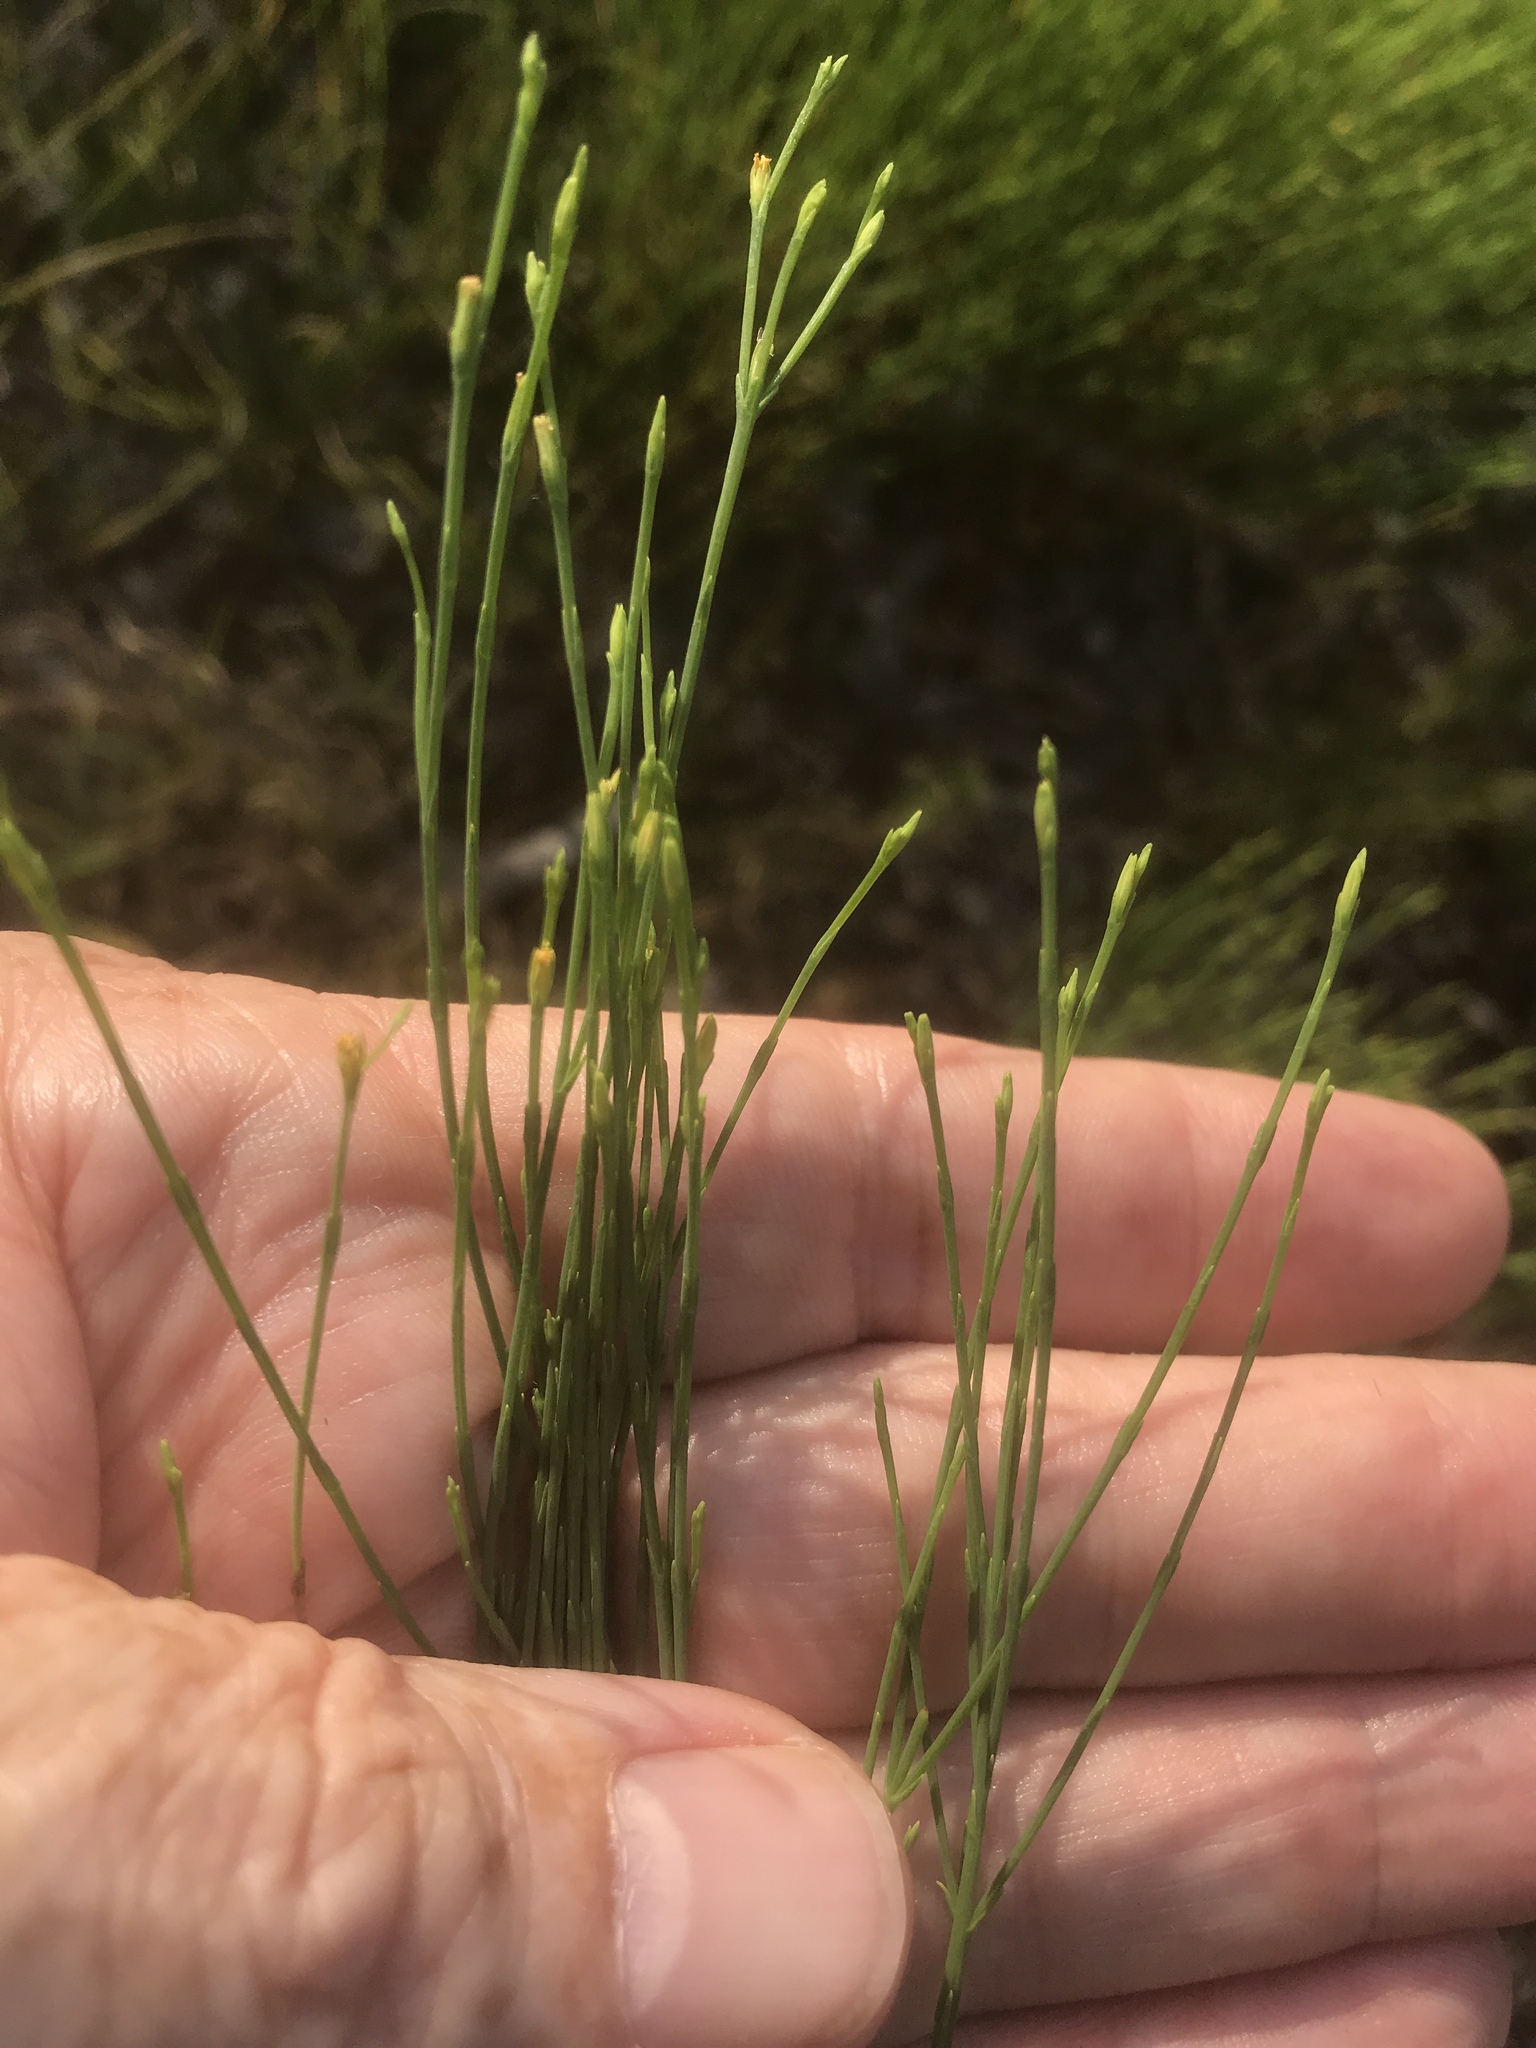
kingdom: Plantae
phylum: Tracheophyta
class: Magnoliopsida
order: Malpighiales
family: Hypericaceae
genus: Hypericum
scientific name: Hypericum gentianoides
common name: Gentian-leaved st. john's-wort
